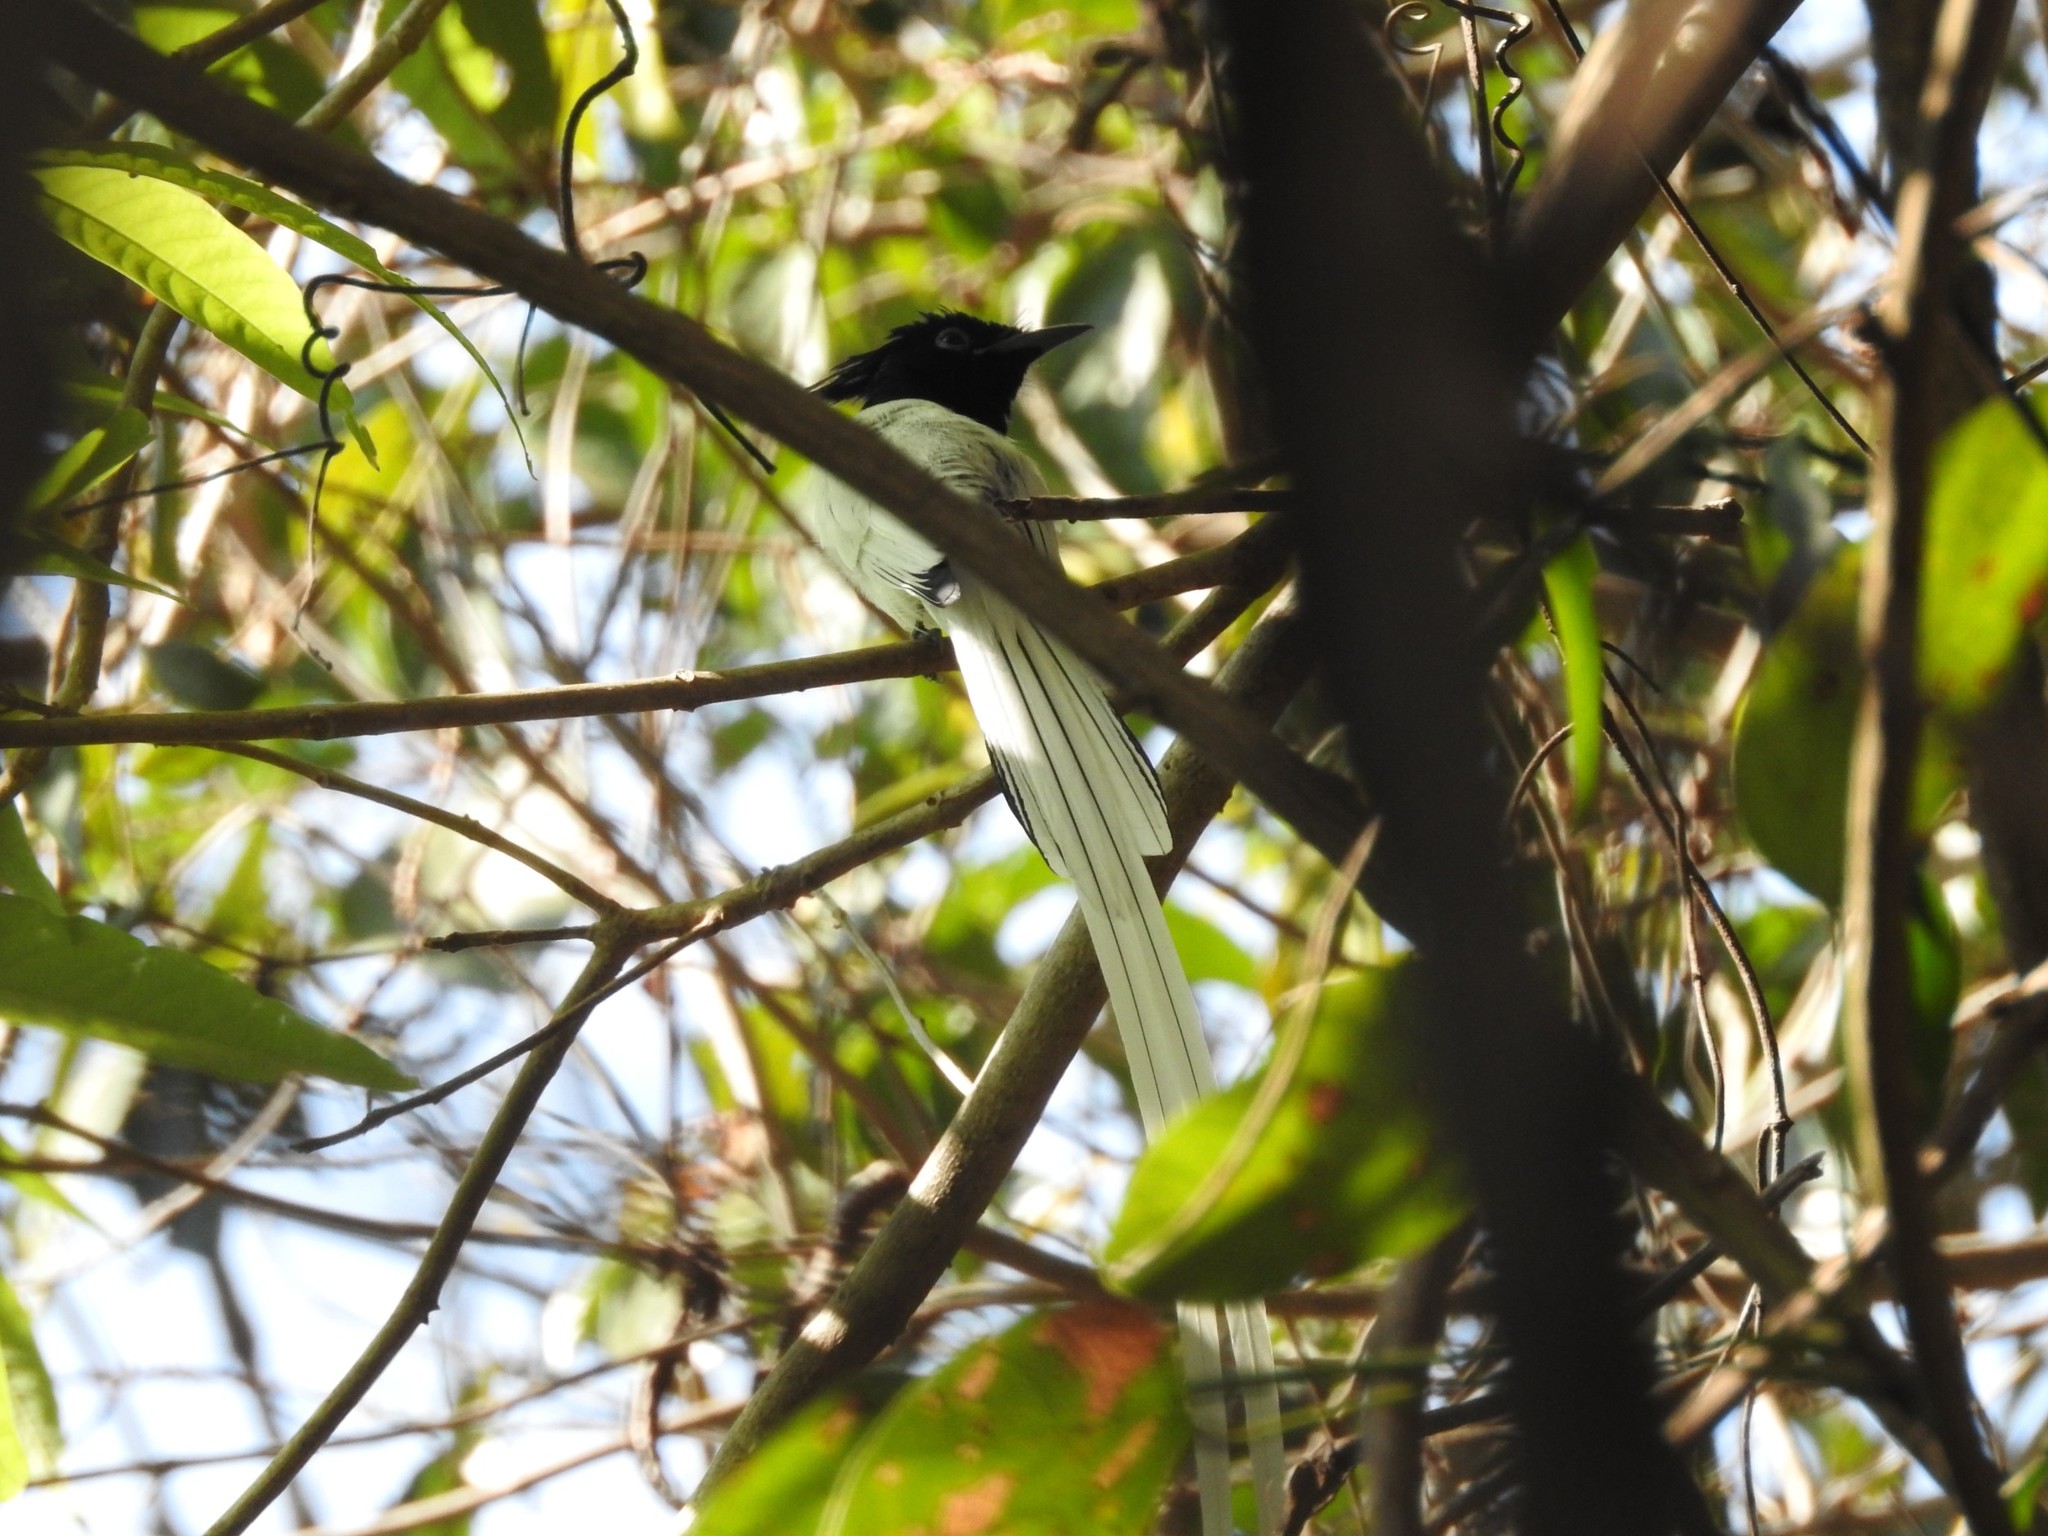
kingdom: Animalia
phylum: Chordata
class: Aves
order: Passeriformes
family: Monarchidae
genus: Terpsiphone
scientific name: Terpsiphone paradisi
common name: Indian paradise flycatcher
